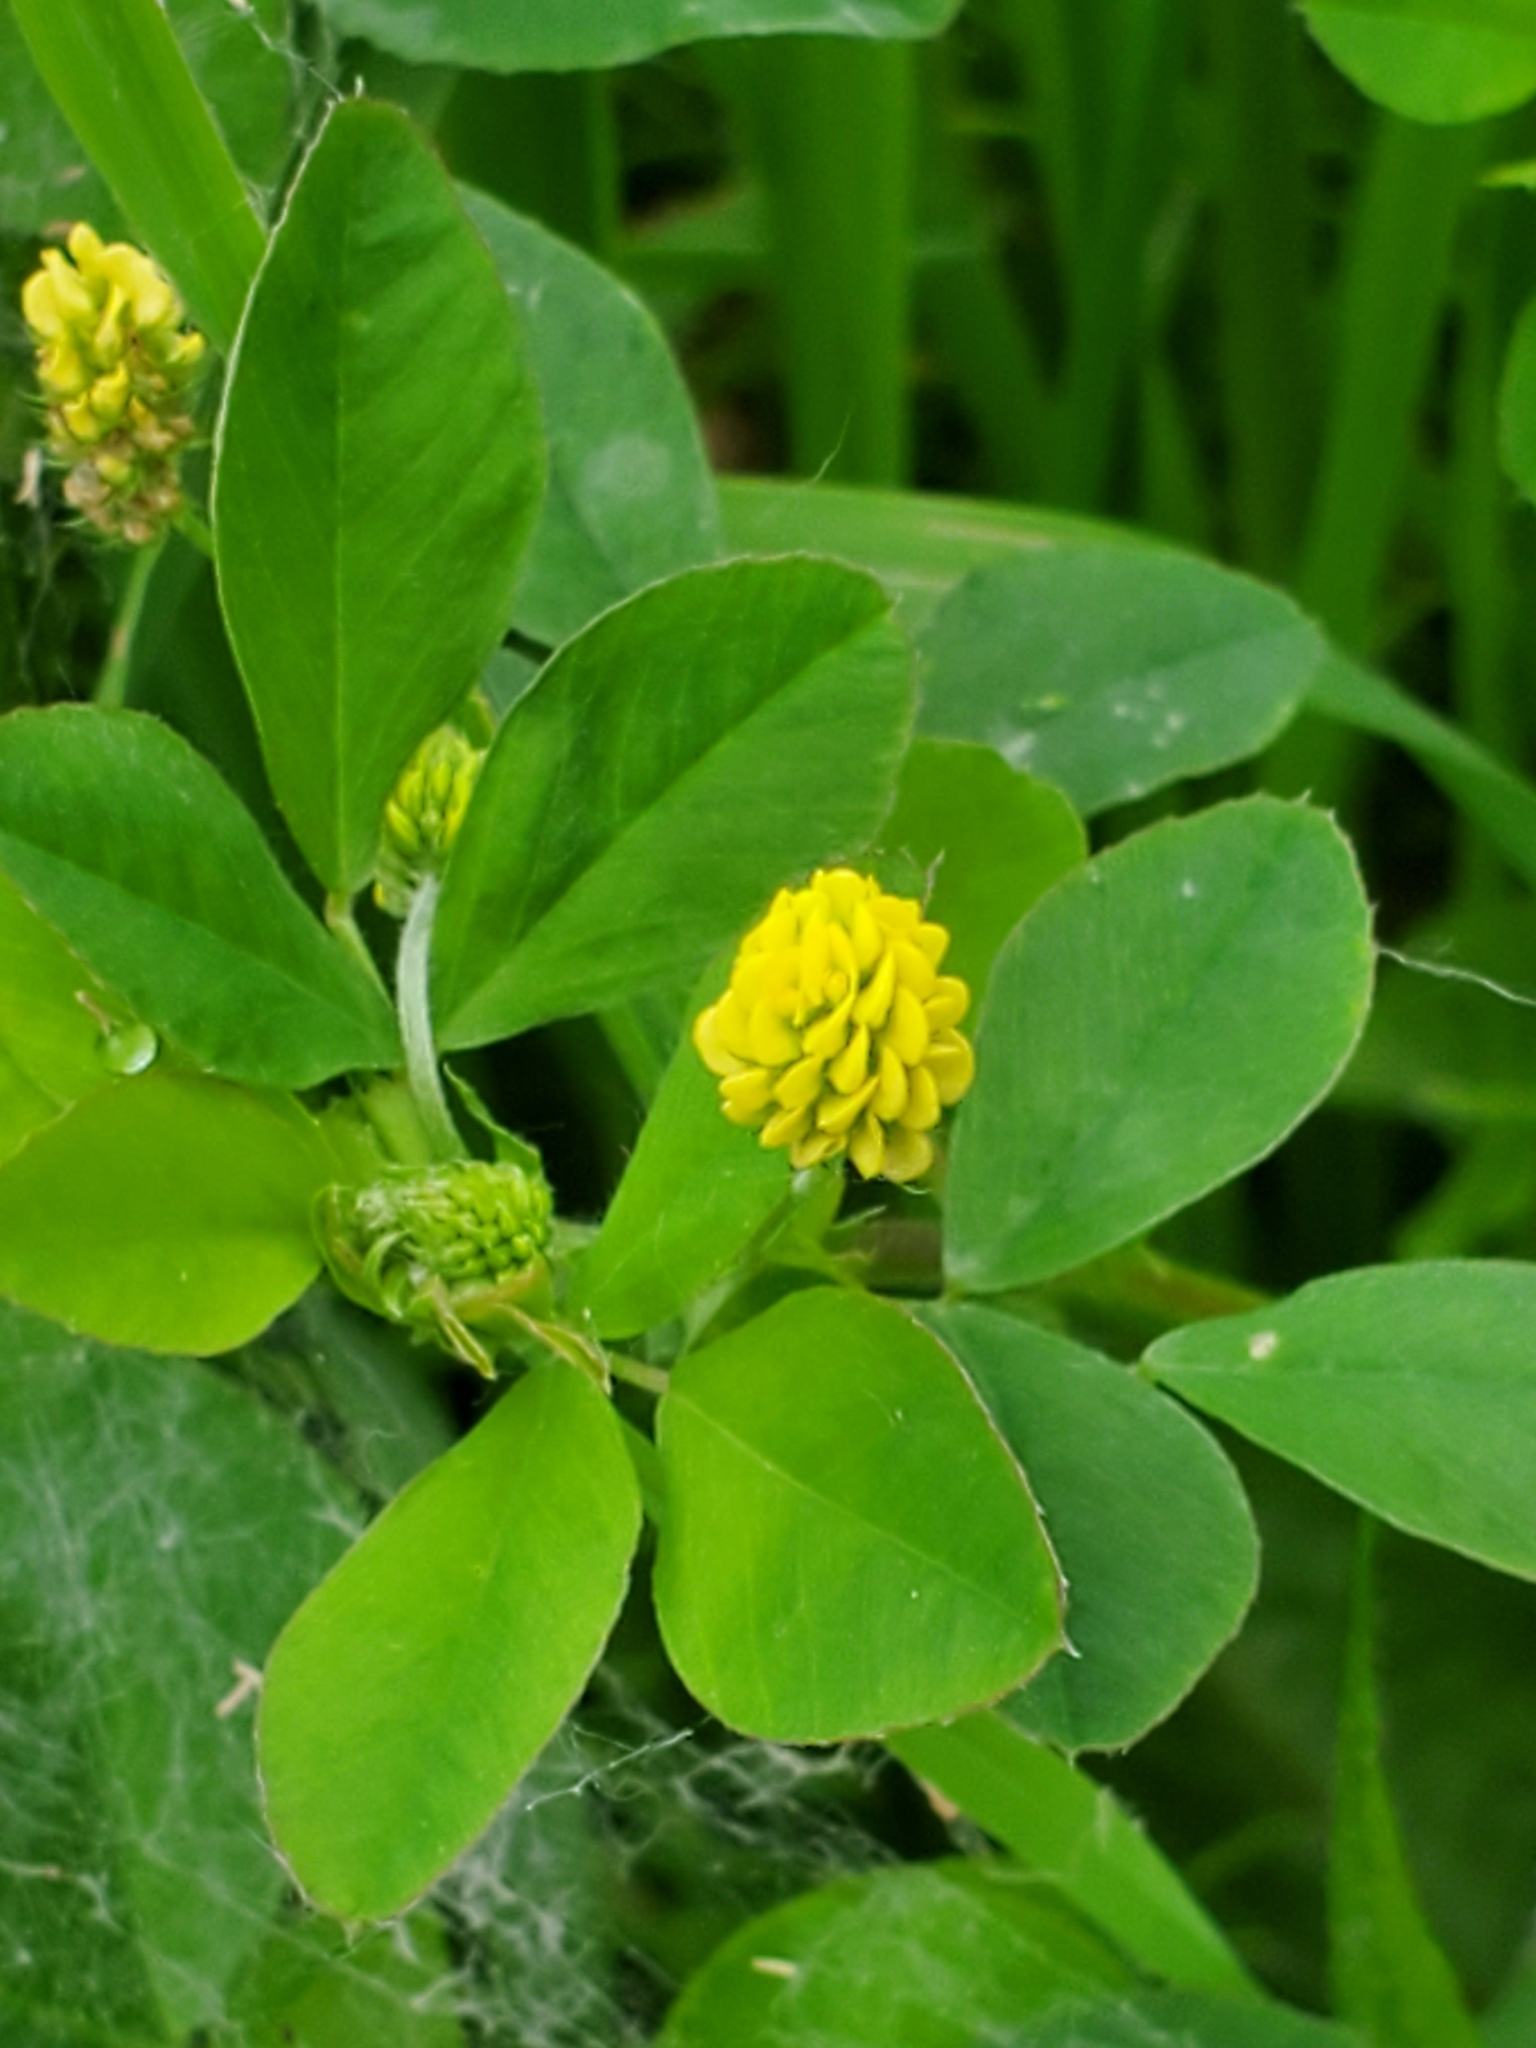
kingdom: Plantae
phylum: Tracheophyta
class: Magnoliopsida
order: Fabales
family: Fabaceae
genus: Medicago
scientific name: Medicago lupulina
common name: Black medick
